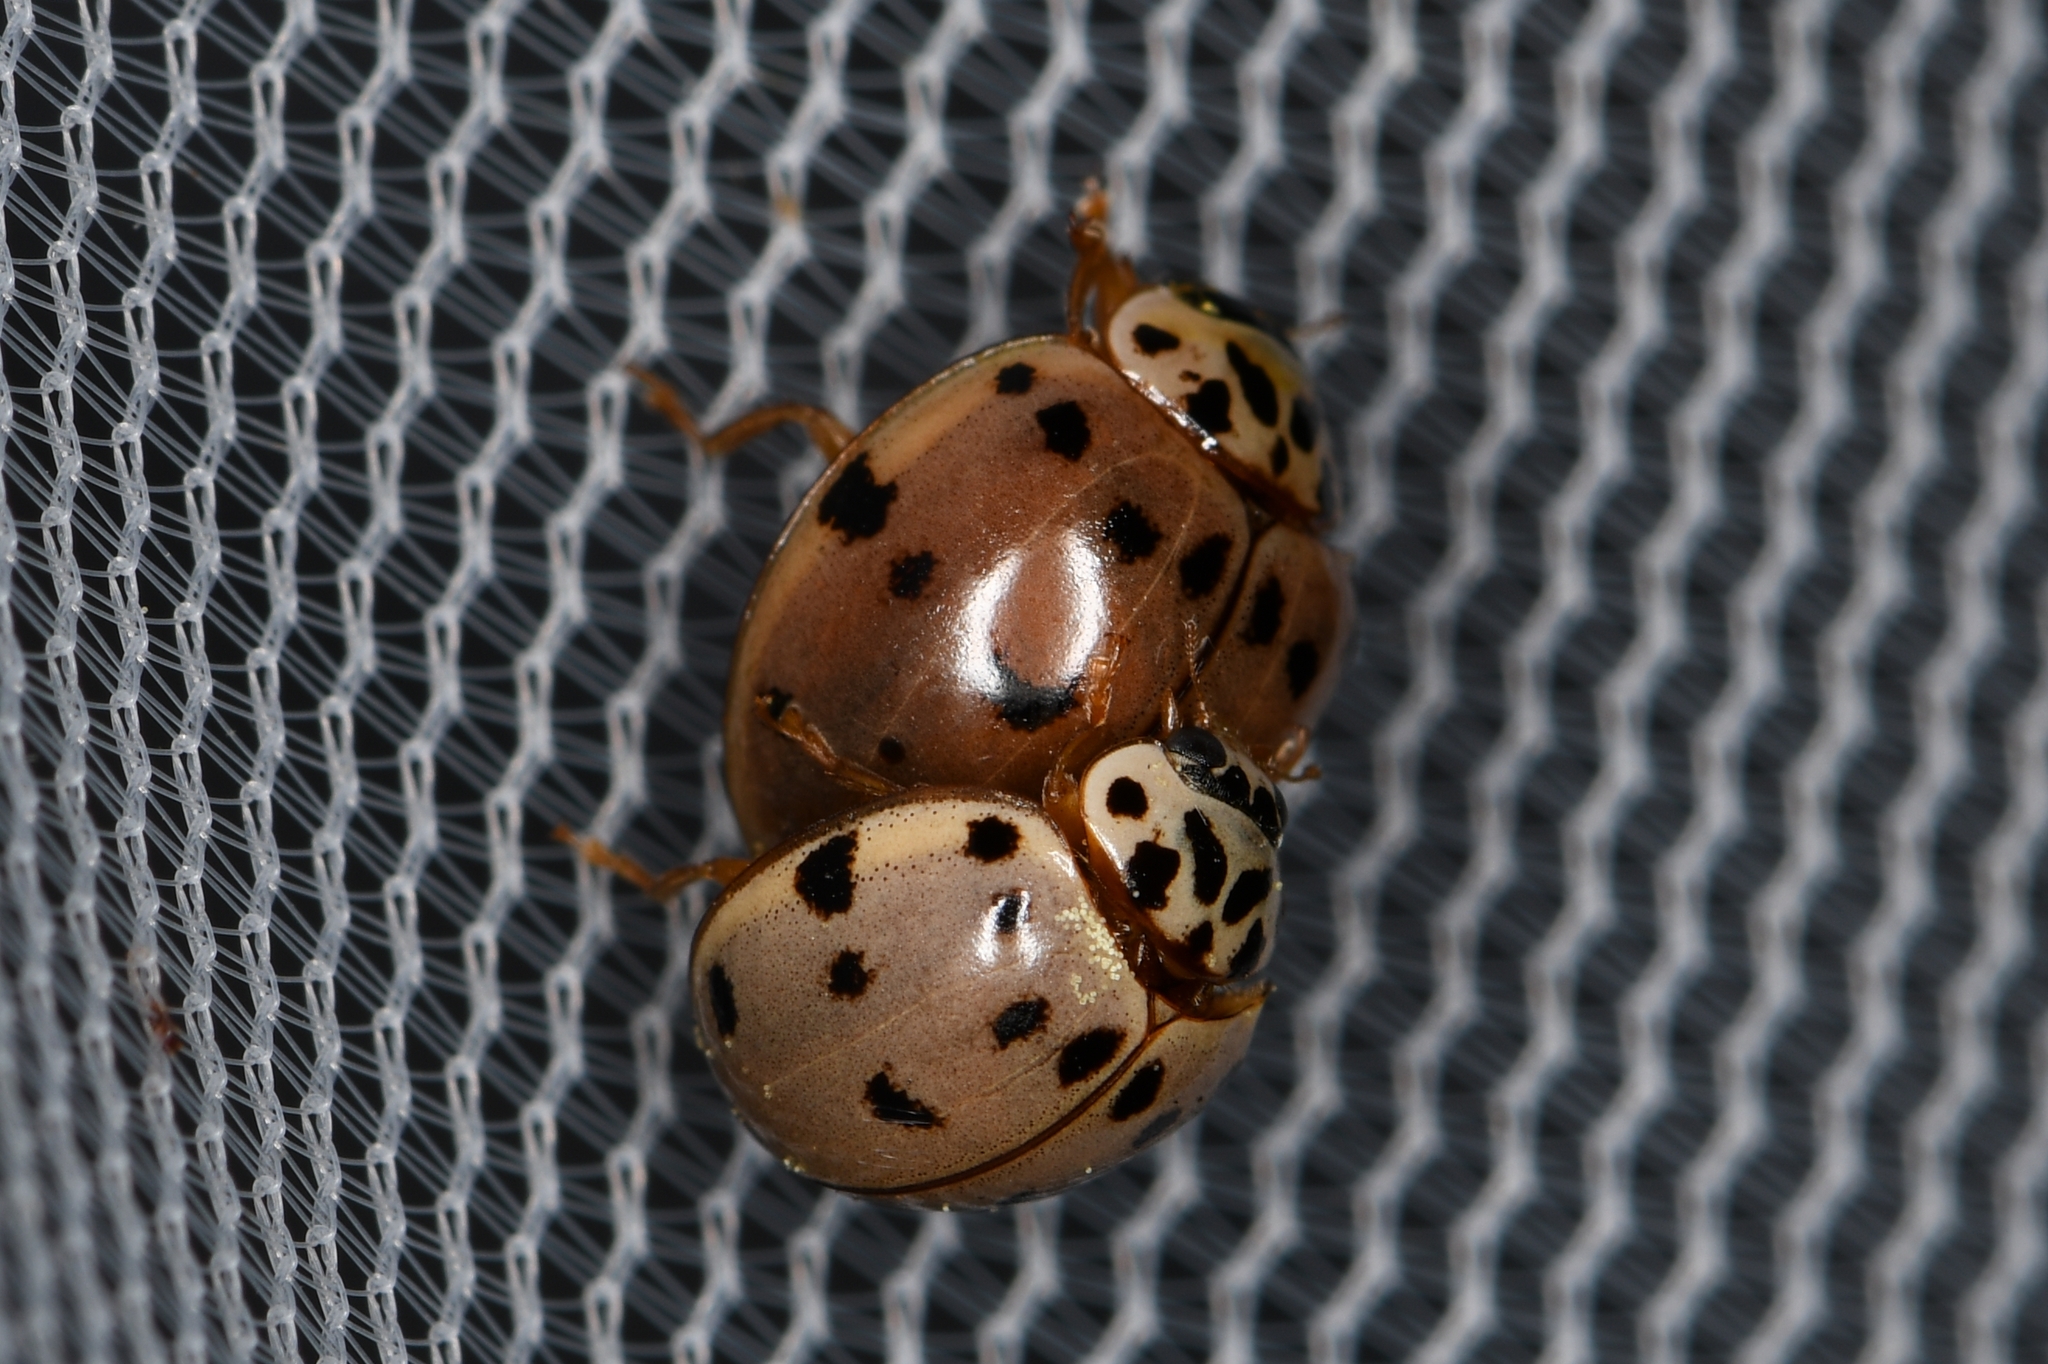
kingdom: Animalia
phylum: Arthropoda
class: Insecta
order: Coleoptera
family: Coccinellidae
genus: Olla
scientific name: Olla v-nigrum
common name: Ashy gray lady beetle
